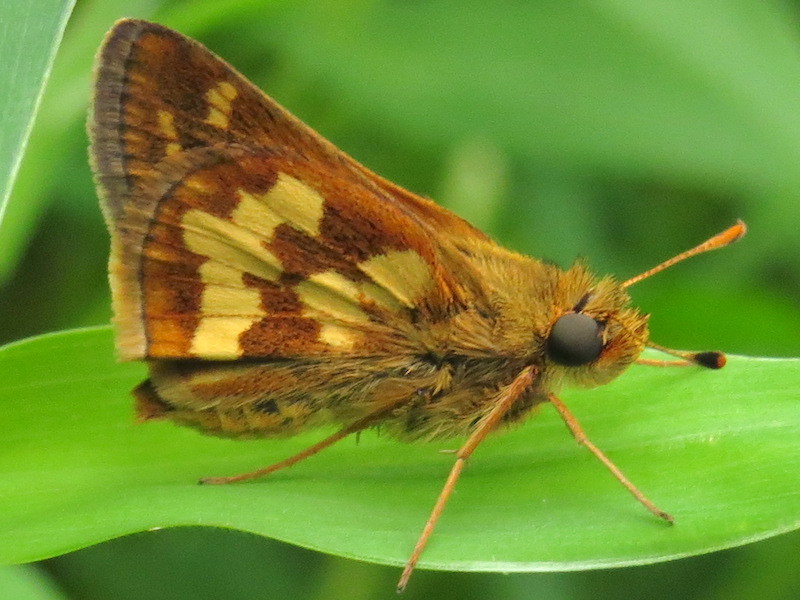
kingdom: Animalia
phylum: Arthropoda
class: Insecta
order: Lepidoptera
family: Hesperiidae
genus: Polites
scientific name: Polites coras
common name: Peck's skipper
